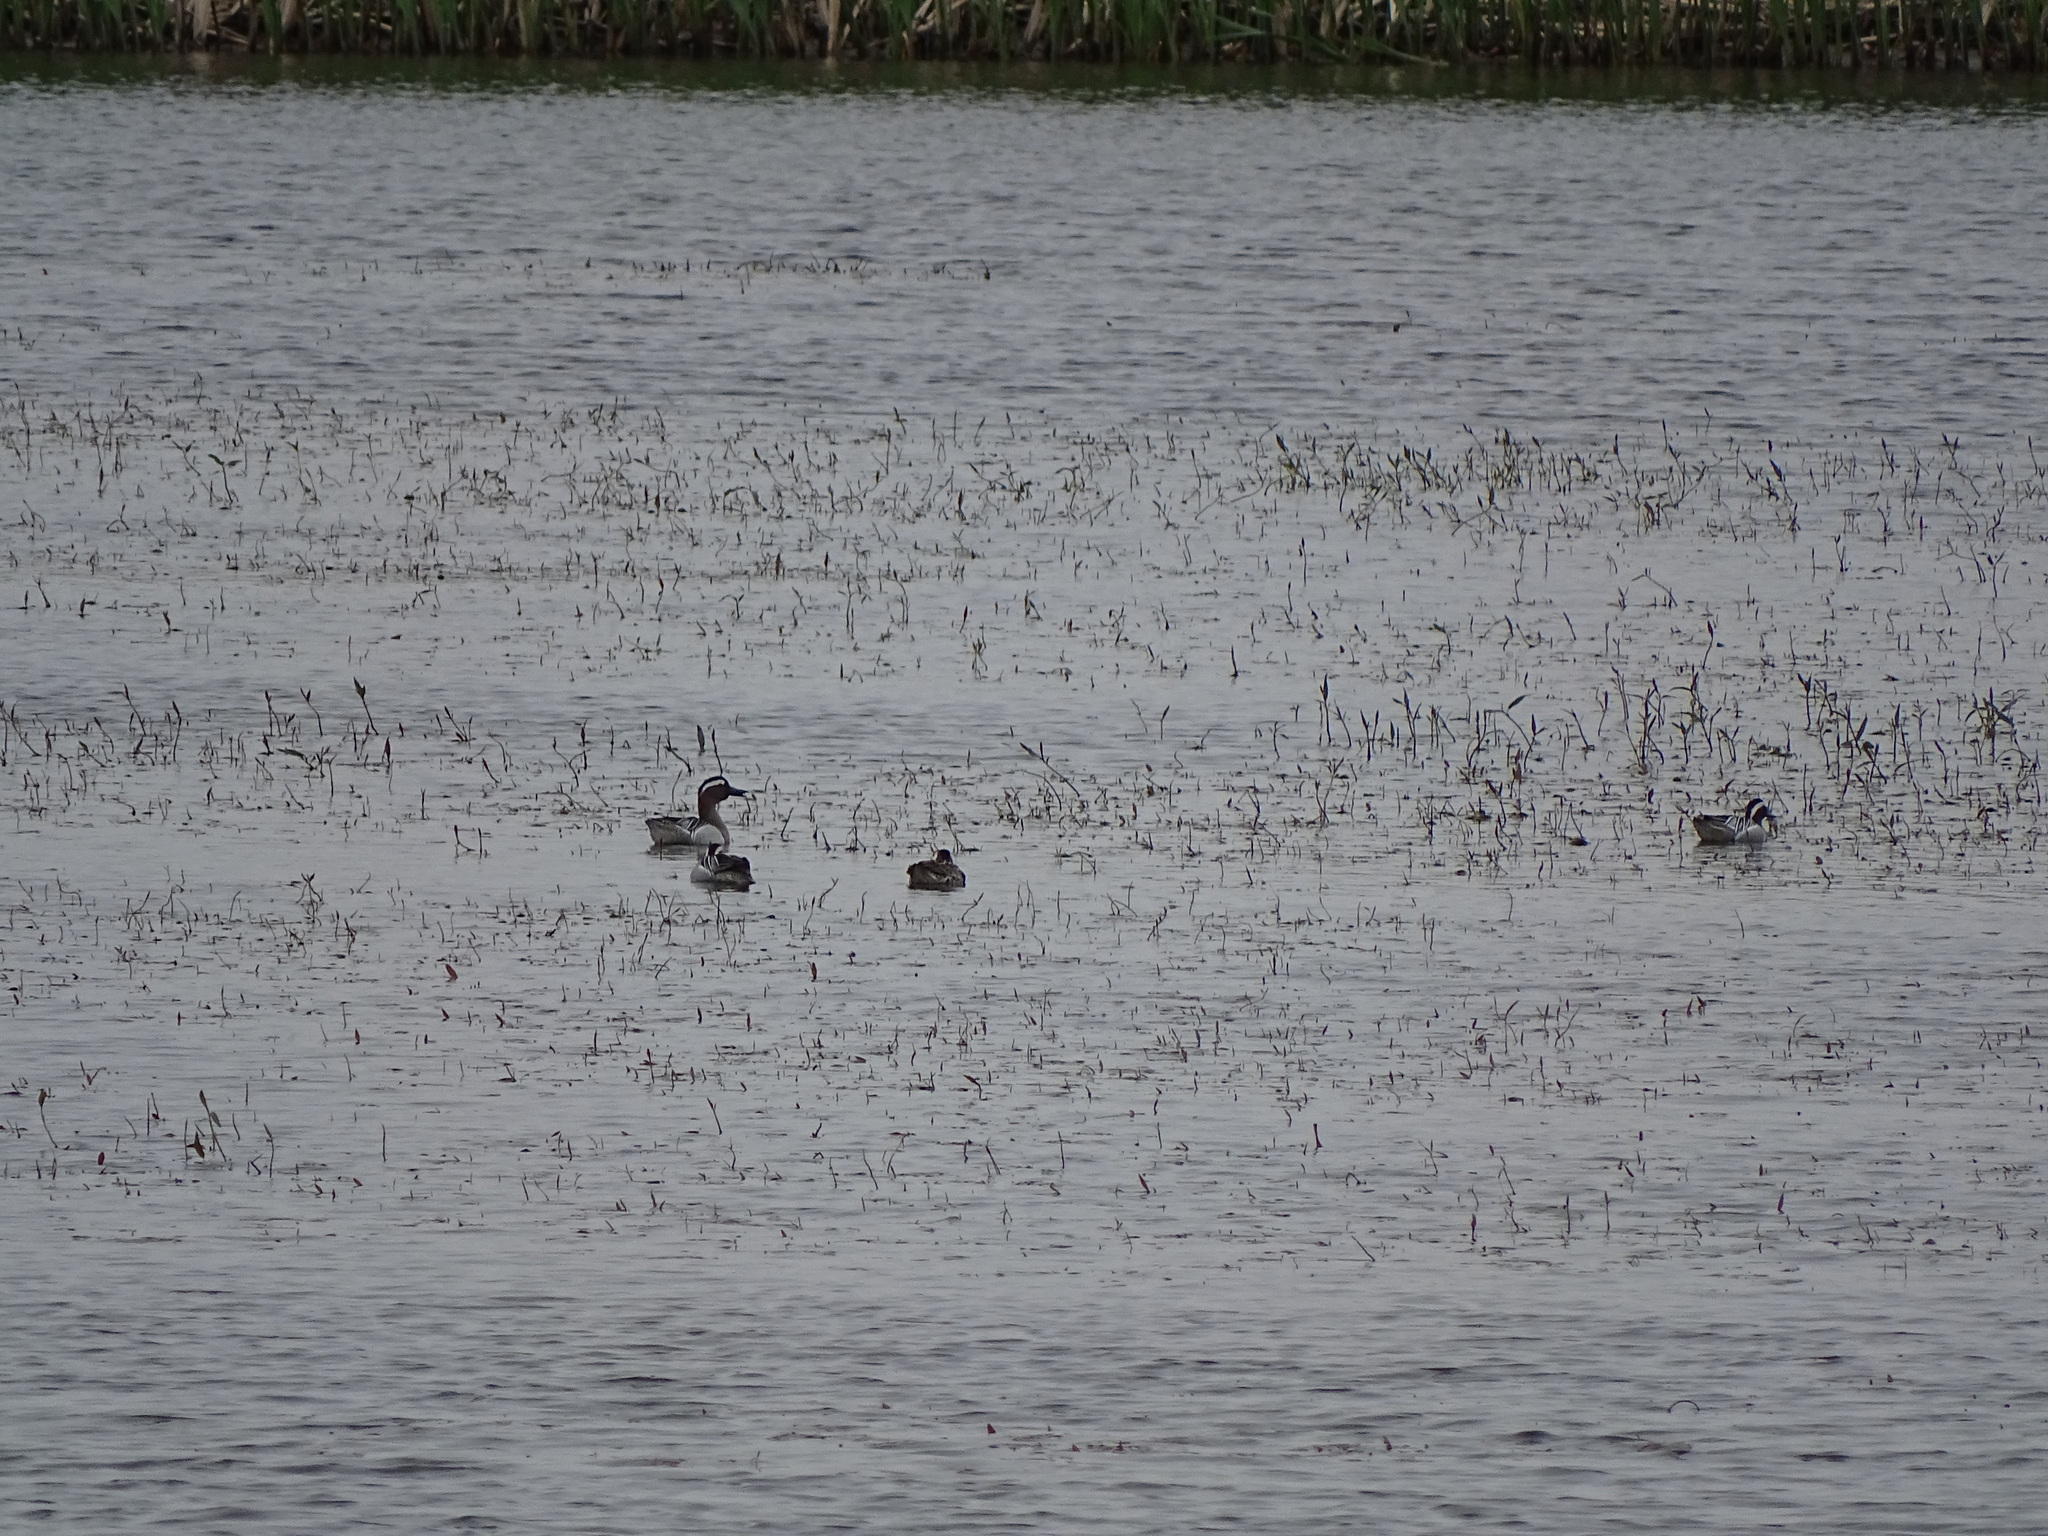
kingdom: Animalia
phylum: Chordata
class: Aves
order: Anseriformes
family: Anatidae
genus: Spatula
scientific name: Spatula querquedula
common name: Garganey
